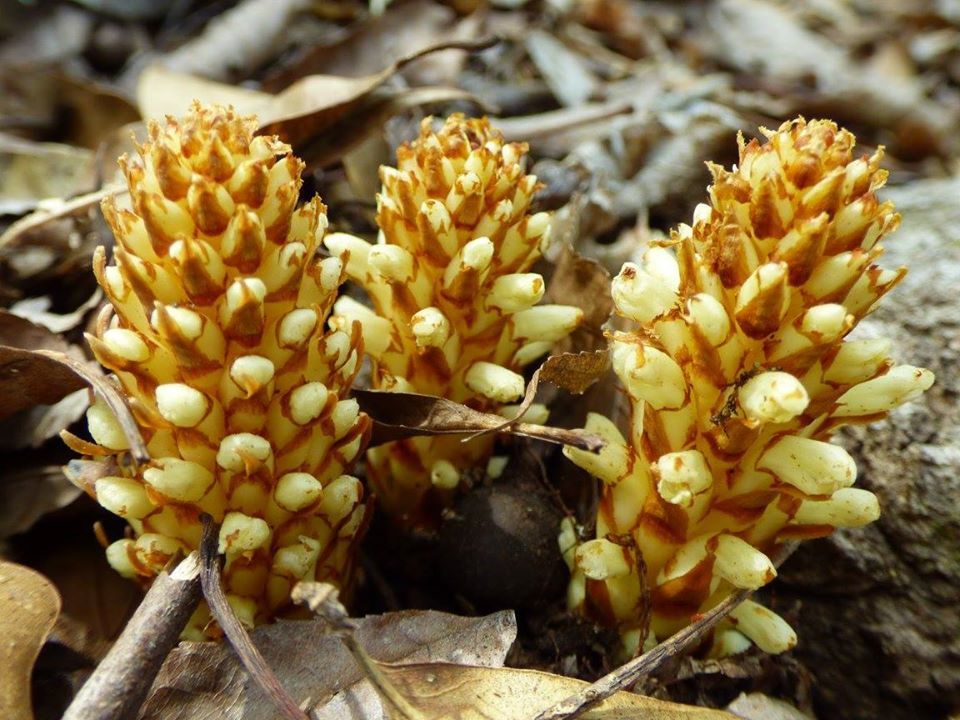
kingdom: Plantae
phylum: Tracheophyta
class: Magnoliopsida
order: Lamiales
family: Orobanchaceae
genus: Conopholis
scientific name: Conopholis americana
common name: American cancer-root
